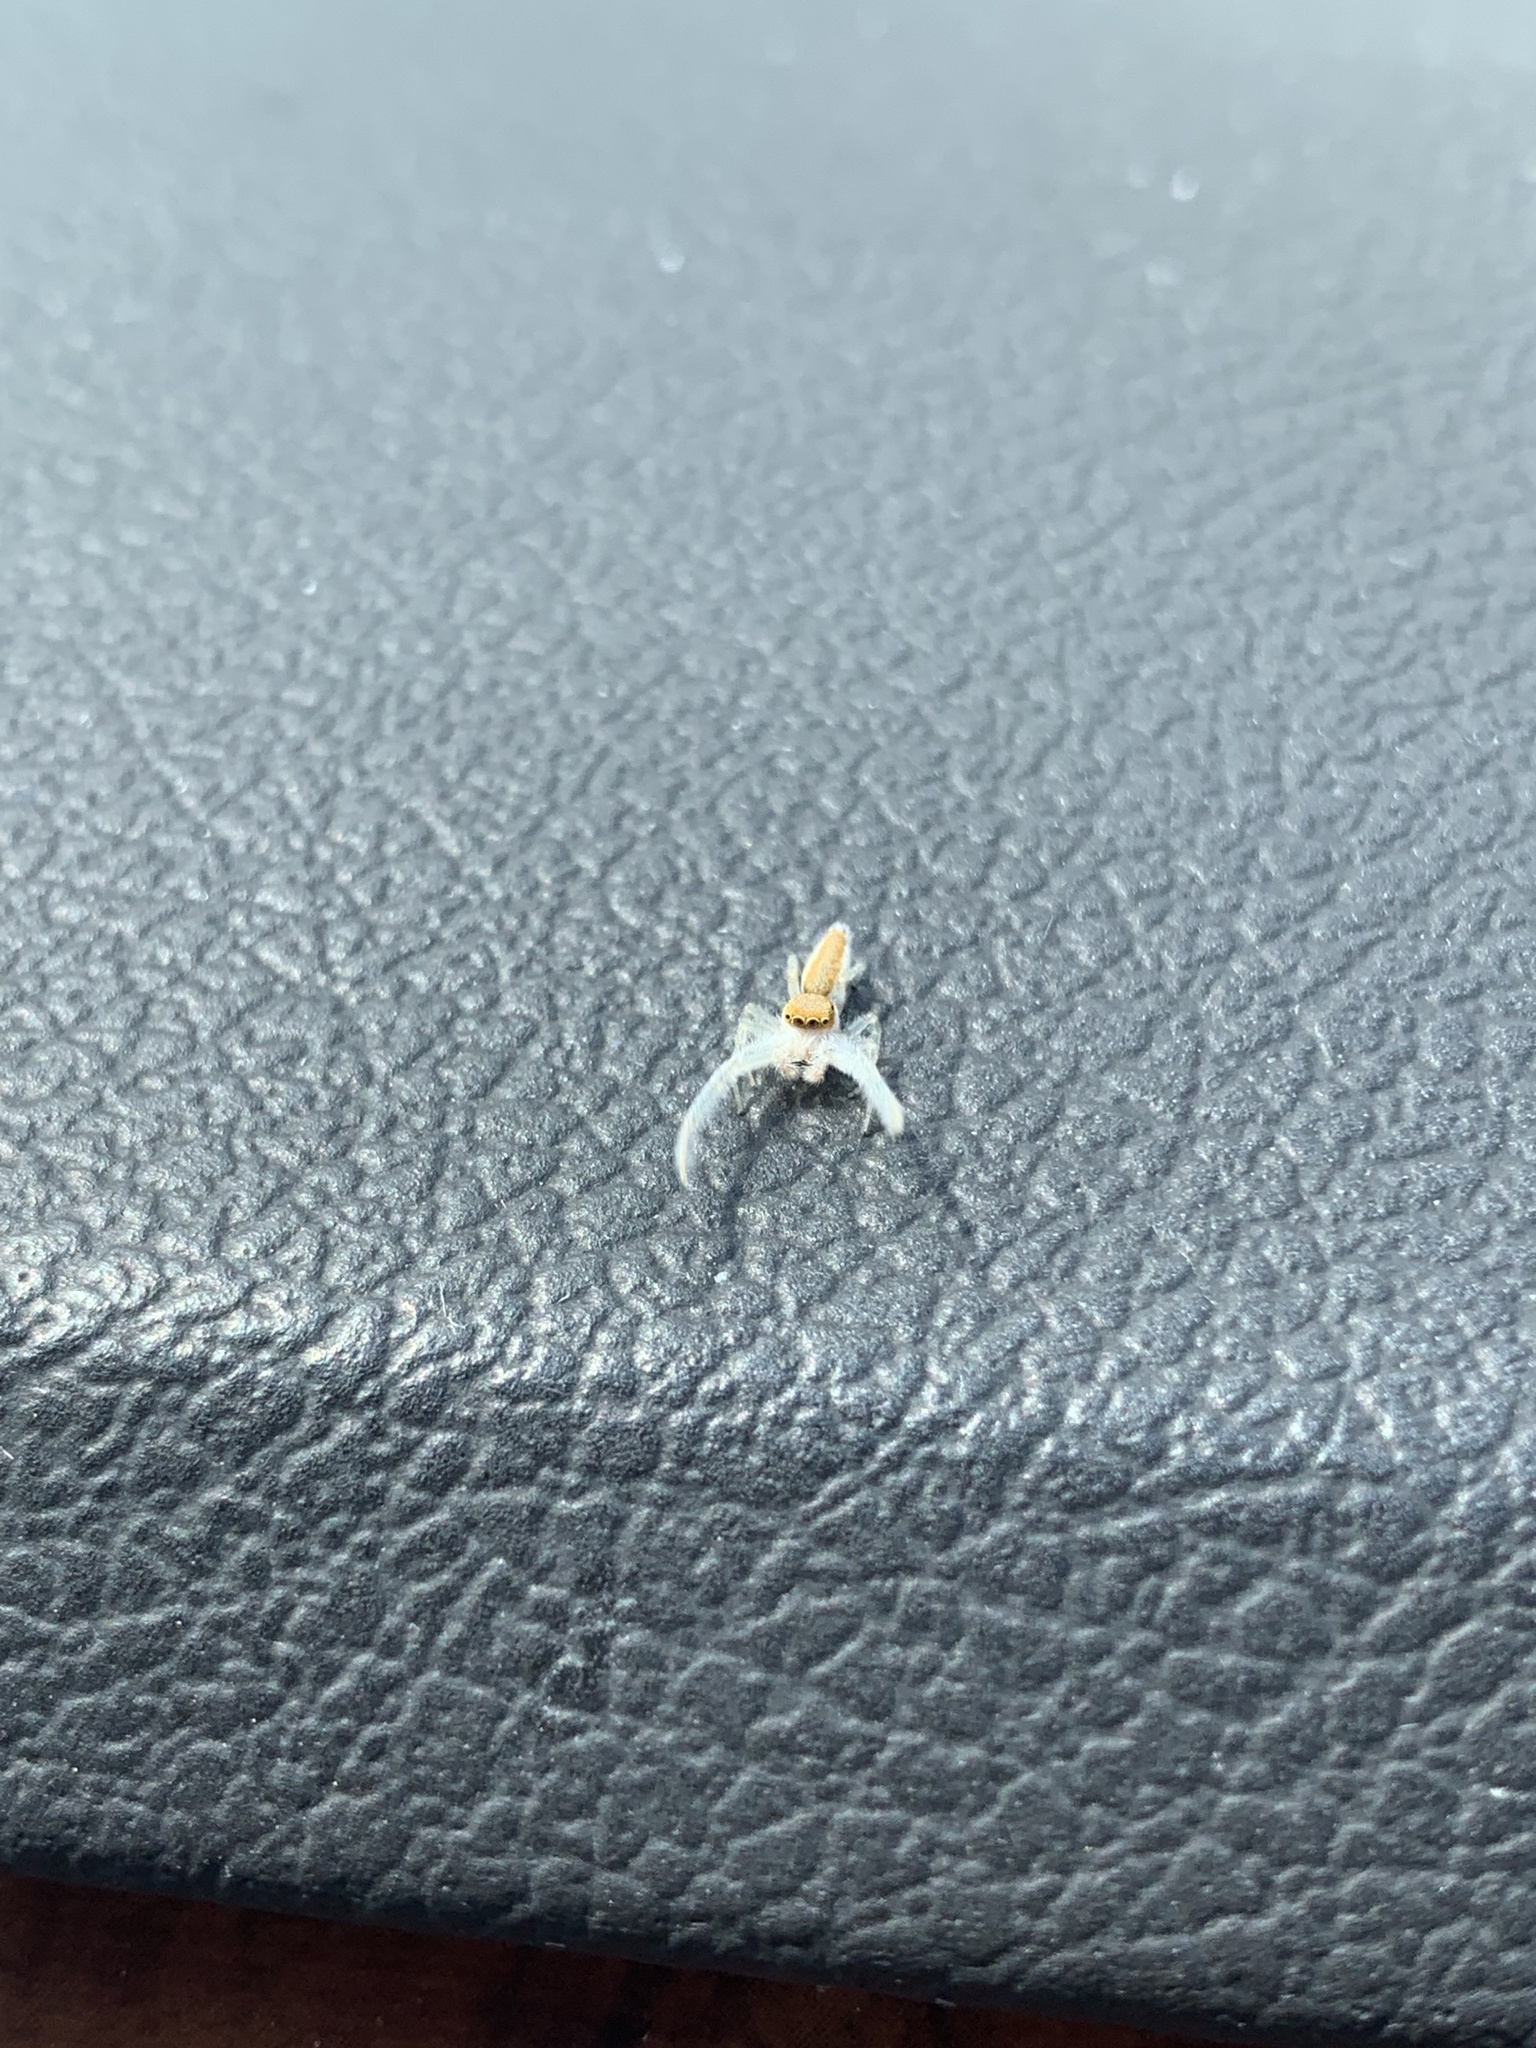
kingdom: Animalia
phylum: Arthropoda
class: Arachnida
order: Araneae
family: Salticidae
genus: Hentzia
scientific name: Hentzia mitrata
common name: White-jawed jumping spider
